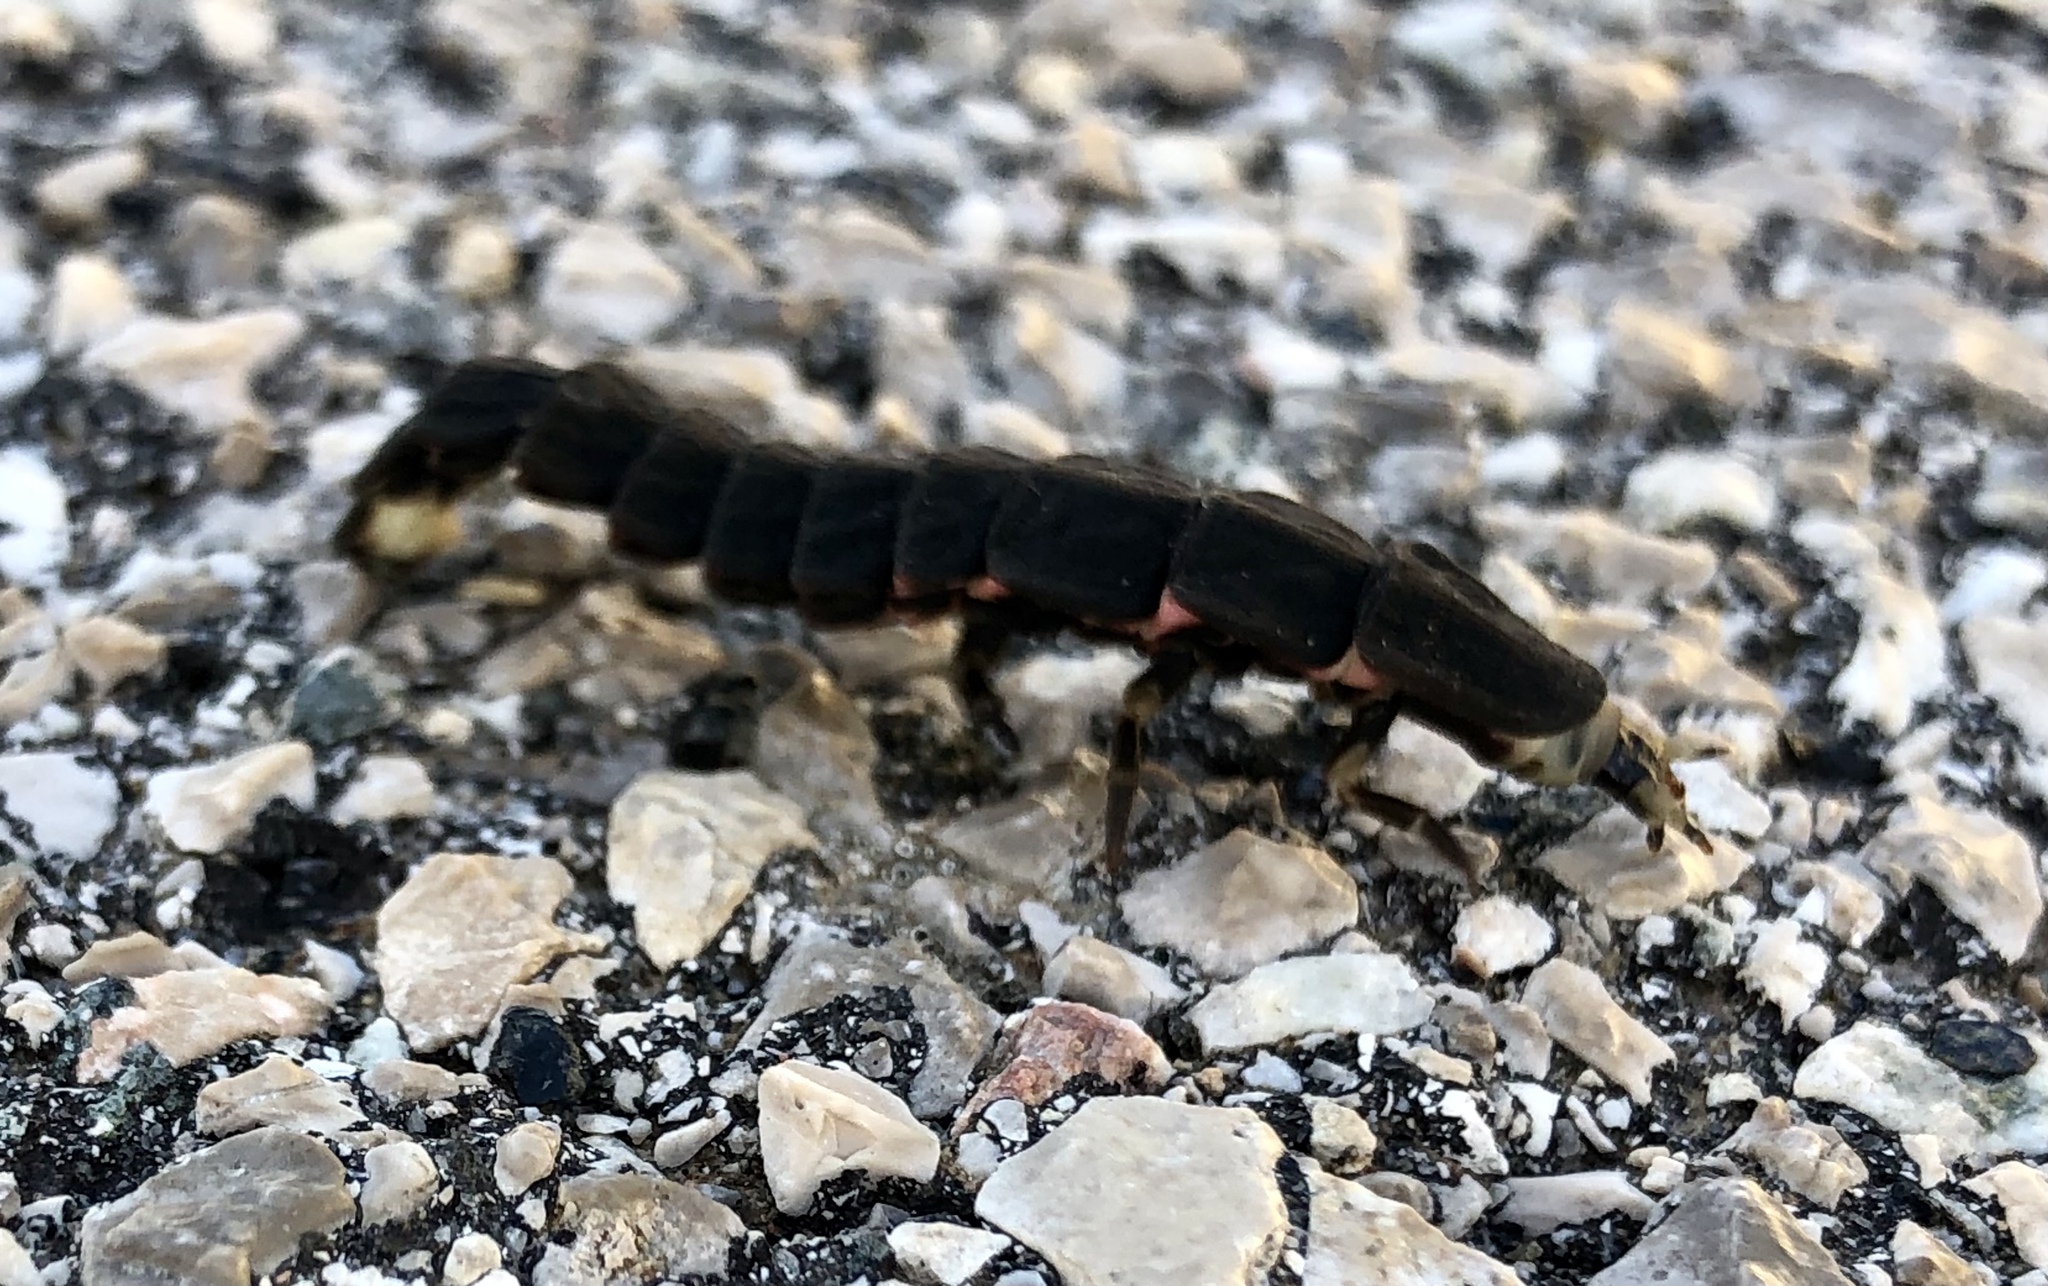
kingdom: Animalia
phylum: Arthropoda
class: Insecta
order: Coleoptera
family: Lampyridae
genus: Nyctophila
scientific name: Nyctophila reichii
